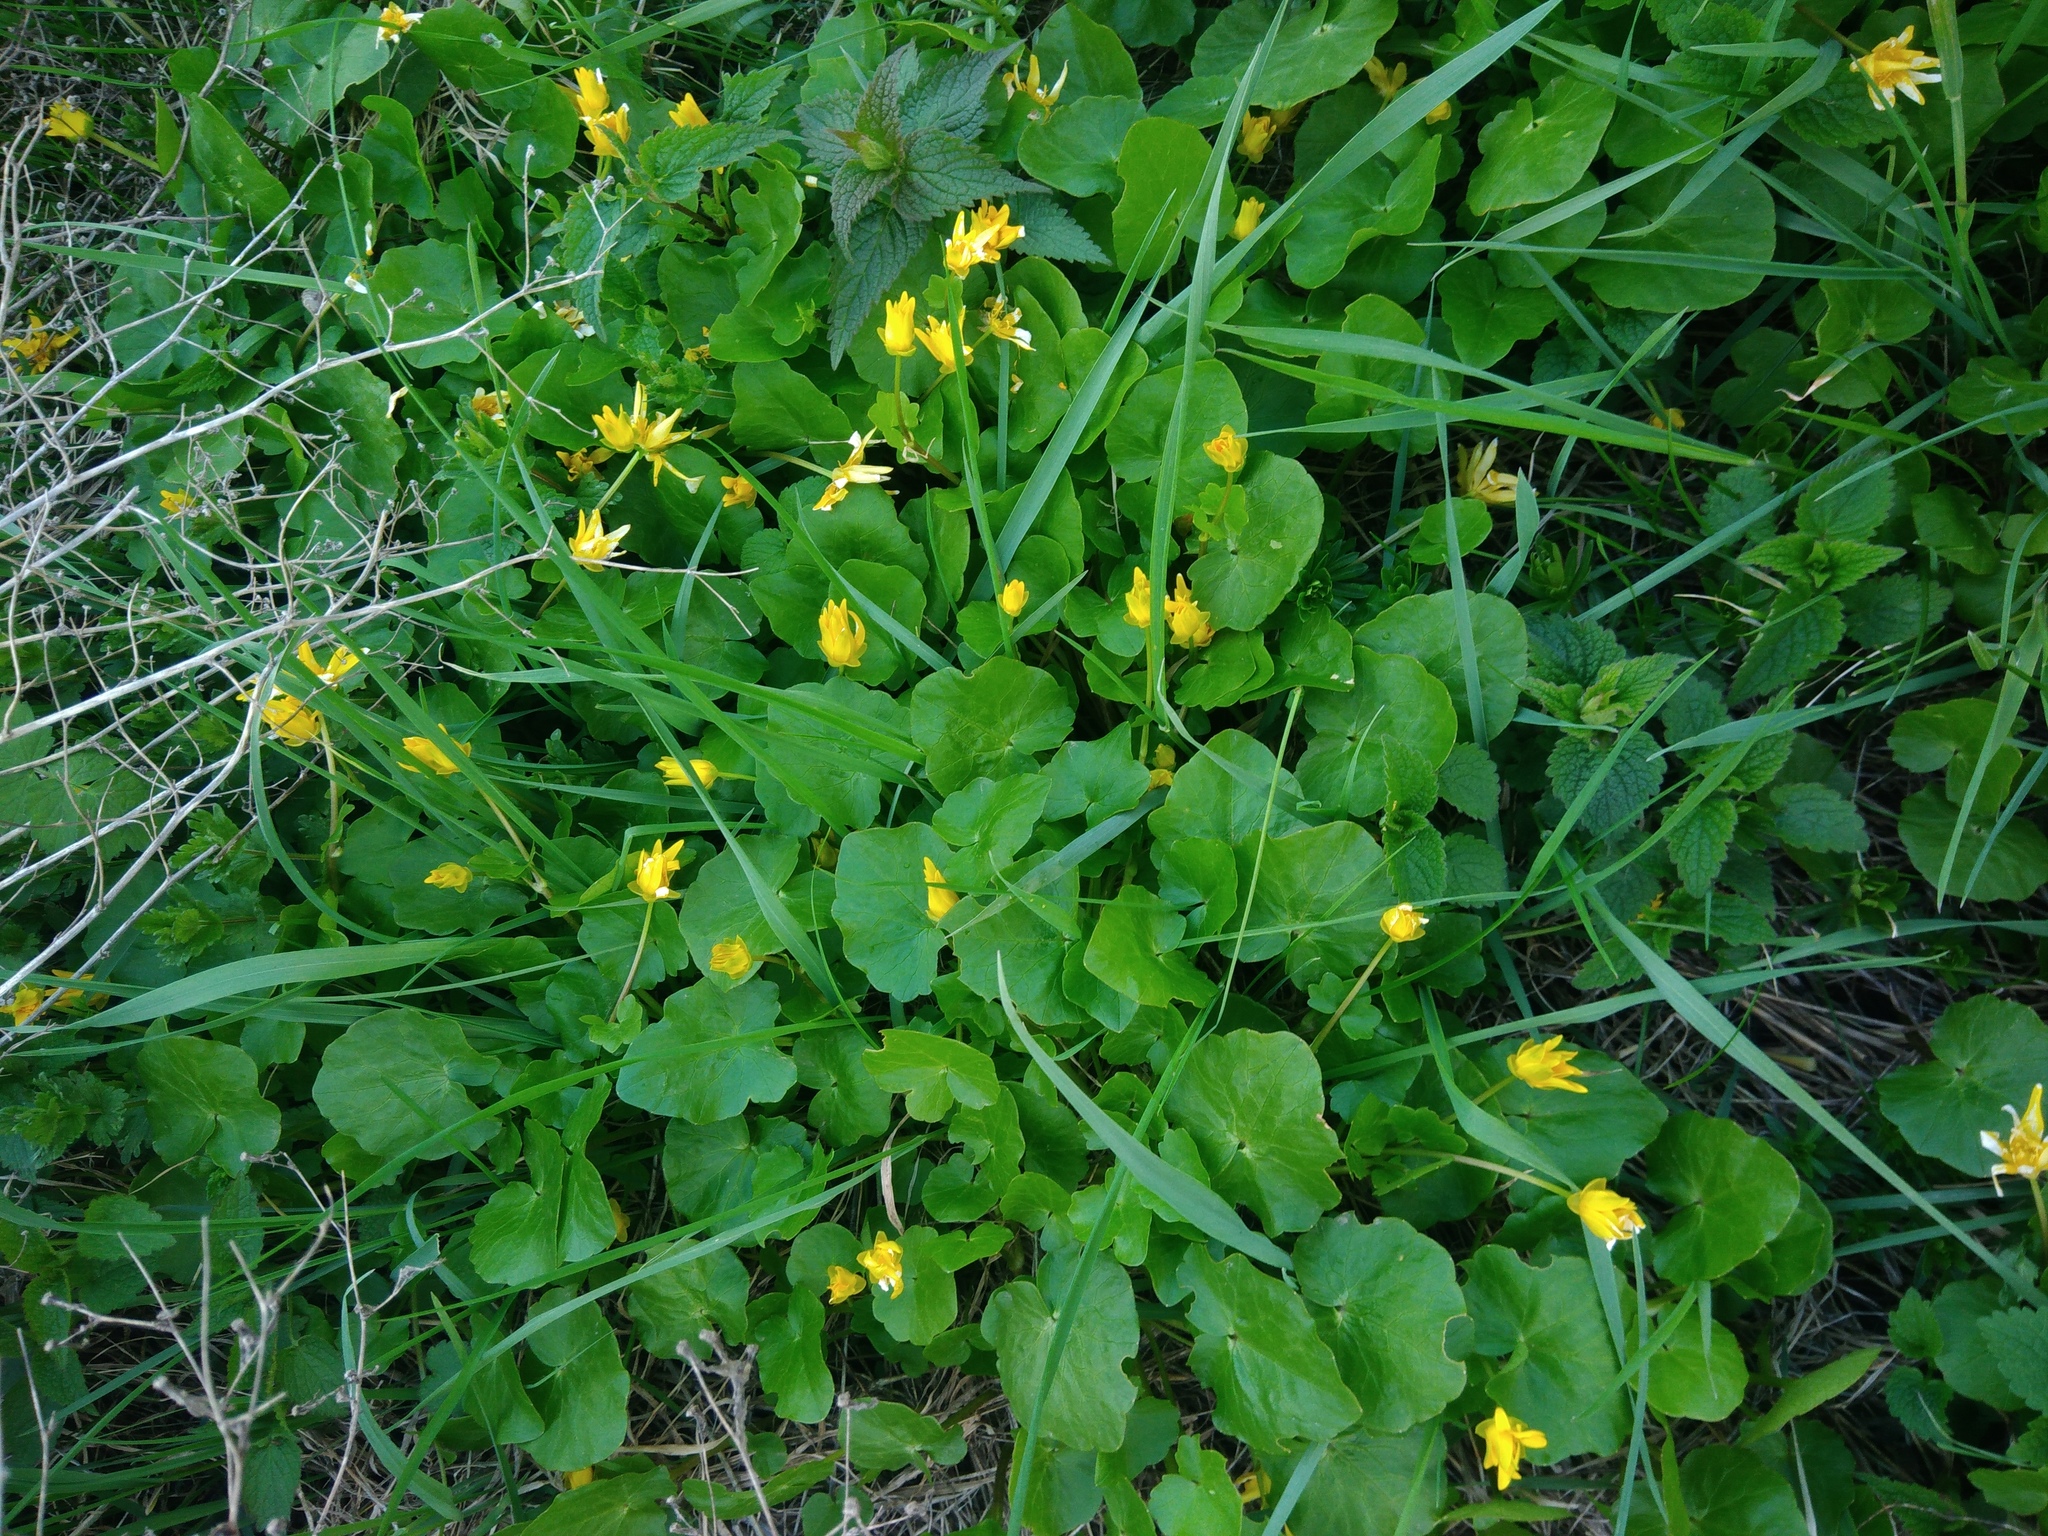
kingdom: Plantae
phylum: Tracheophyta
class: Magnoliopsida
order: Ranunculales
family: Ranunculaceae
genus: Ficaria
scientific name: Ficaria verna
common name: Lesser celandine
